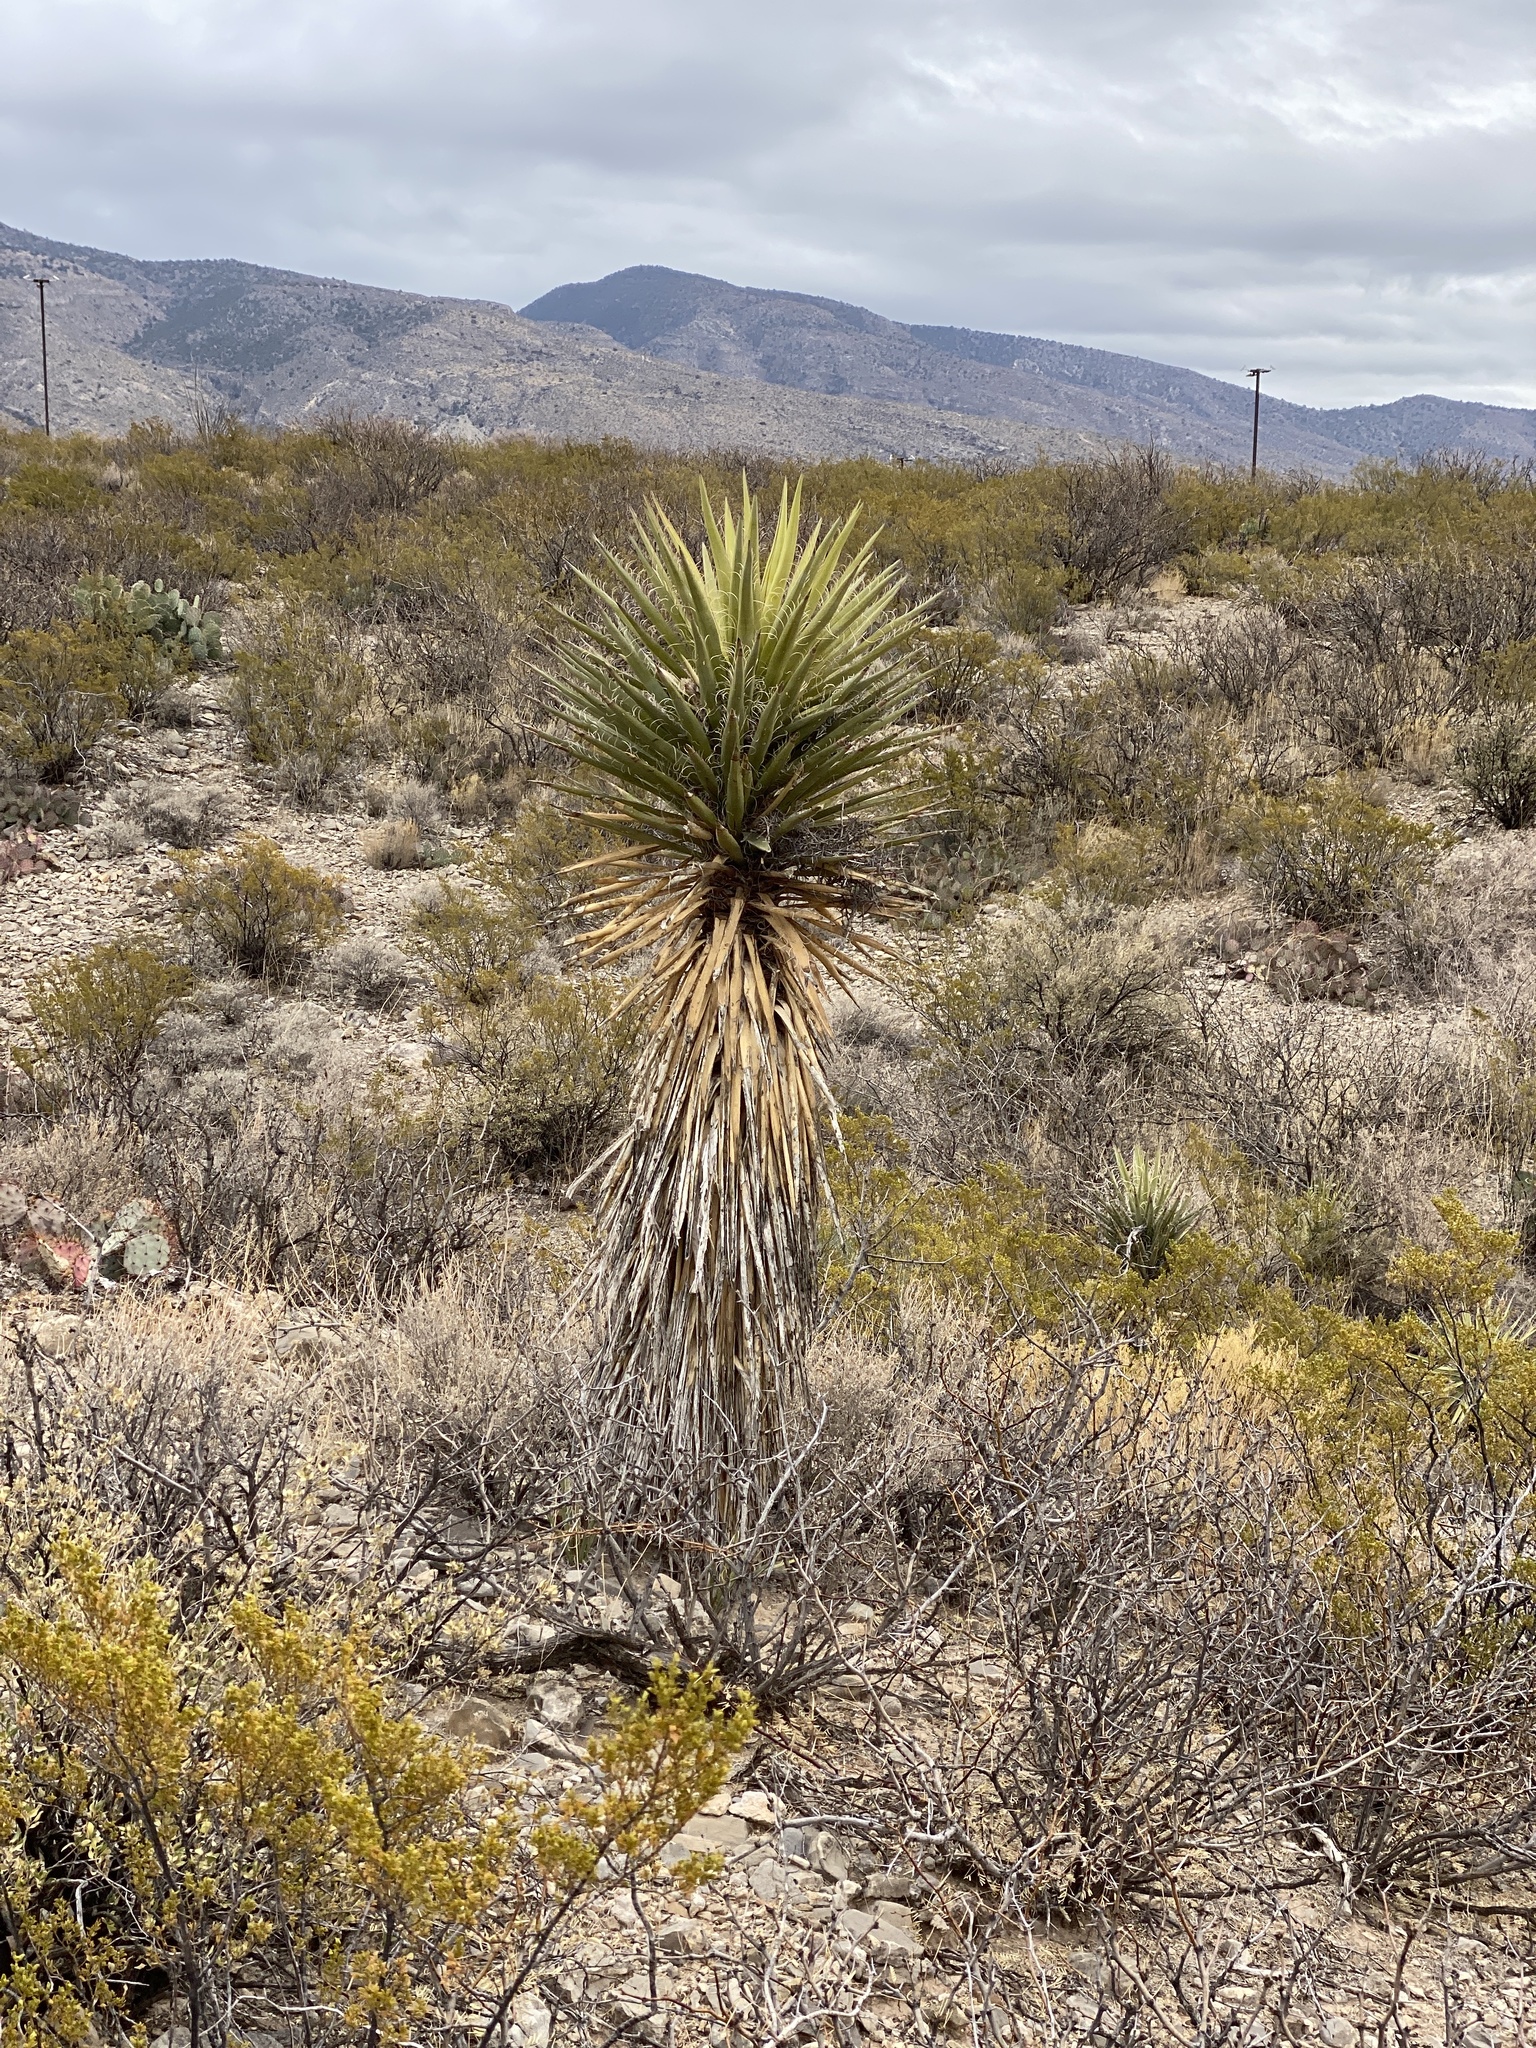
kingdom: Plantae
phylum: Tracheophyta
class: Liliopsida
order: Asparagales
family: Asparagaceae
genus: Yucca
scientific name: Yucca treculiana
